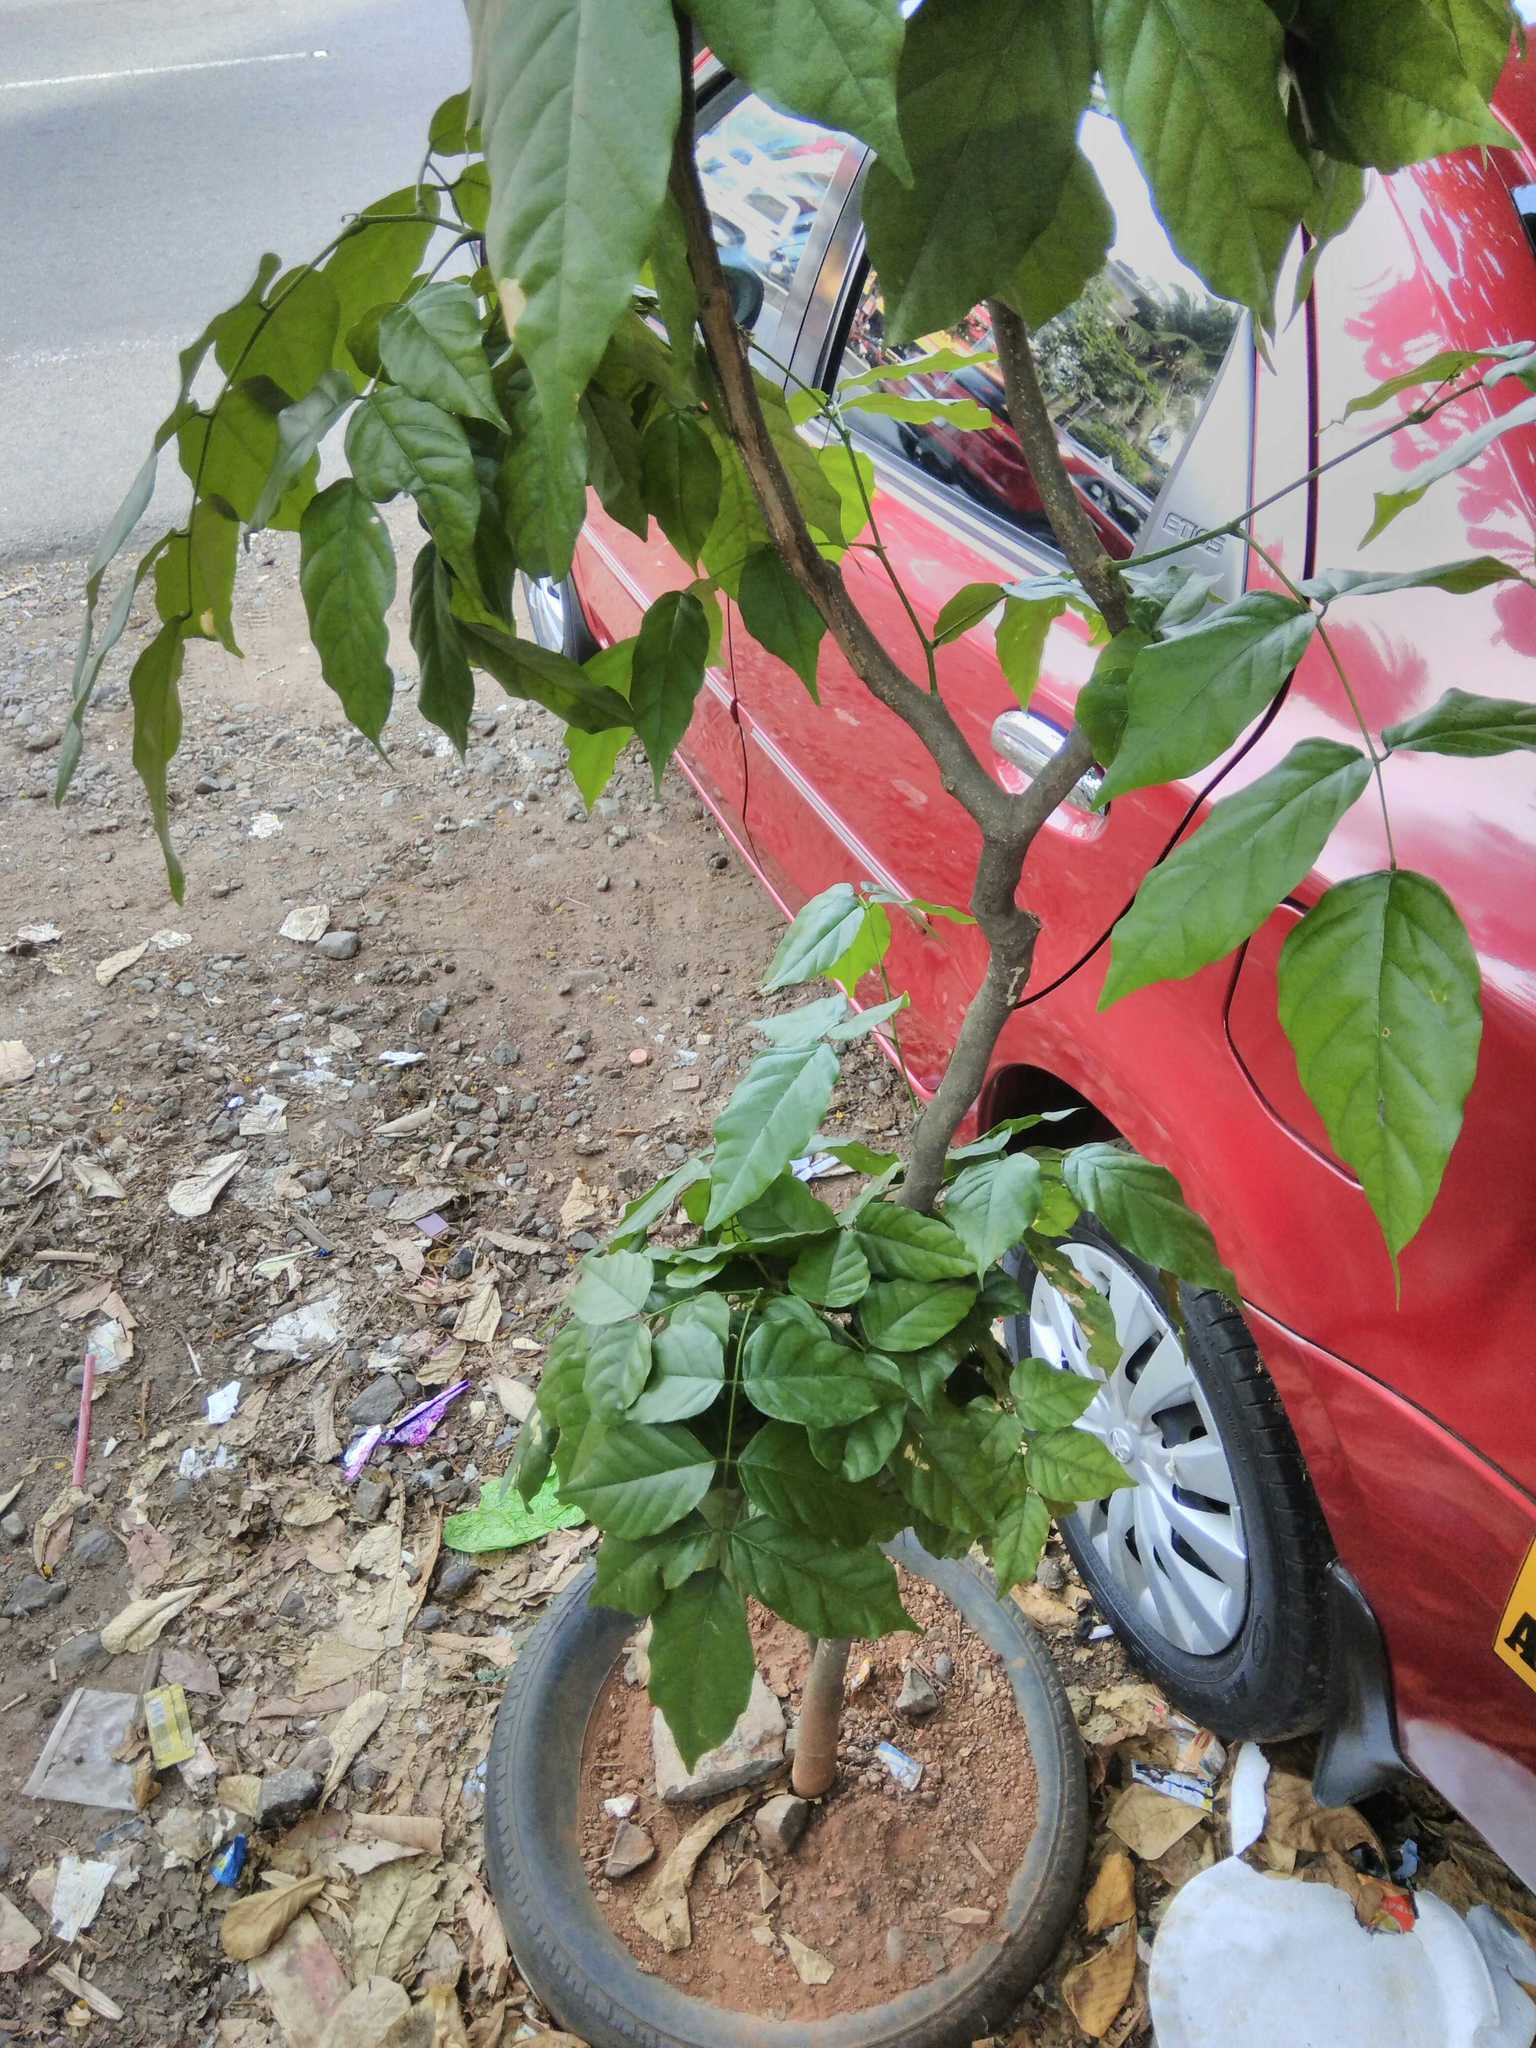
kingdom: Plantae
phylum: Tracheophyta
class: Magnoliopsida
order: Fabales
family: Fabaceae
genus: Pongamia
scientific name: Pongamia pinnata
